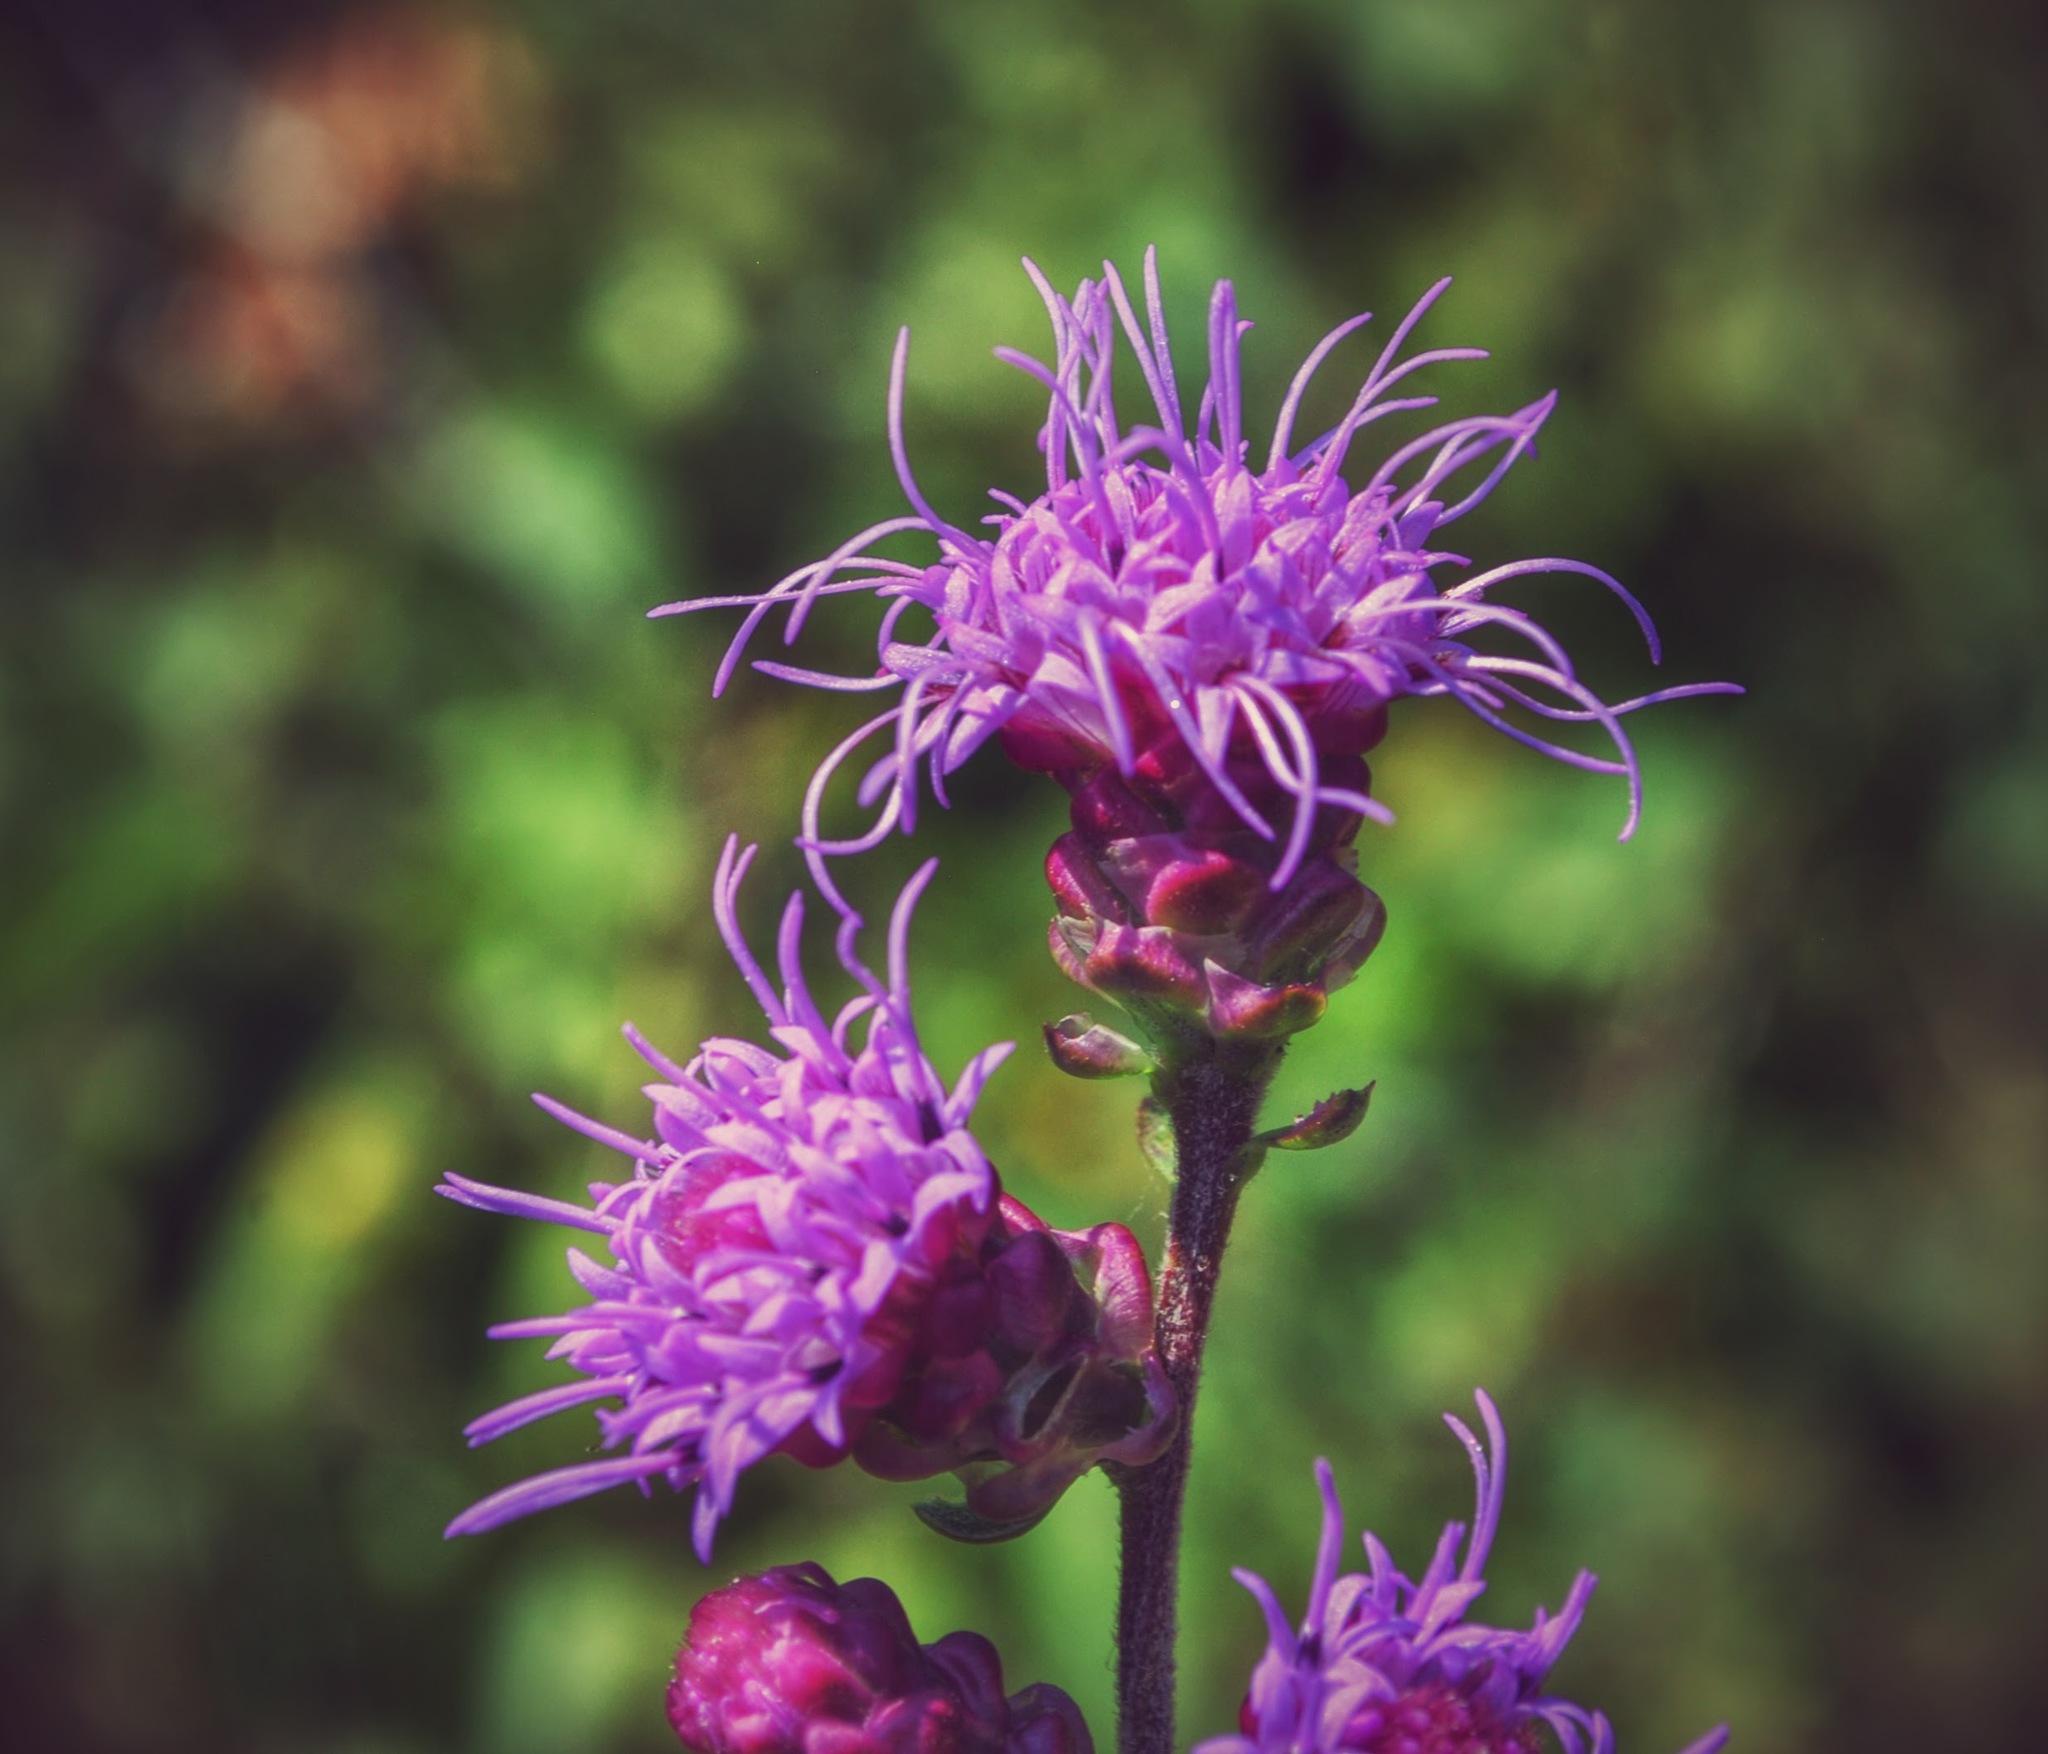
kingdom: Plantae
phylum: Tracheophyta
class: Magnoliopsida
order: Asterales
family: Asteraceae
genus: Liatris
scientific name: Liatris aspera
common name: Lacerate blazing-star
